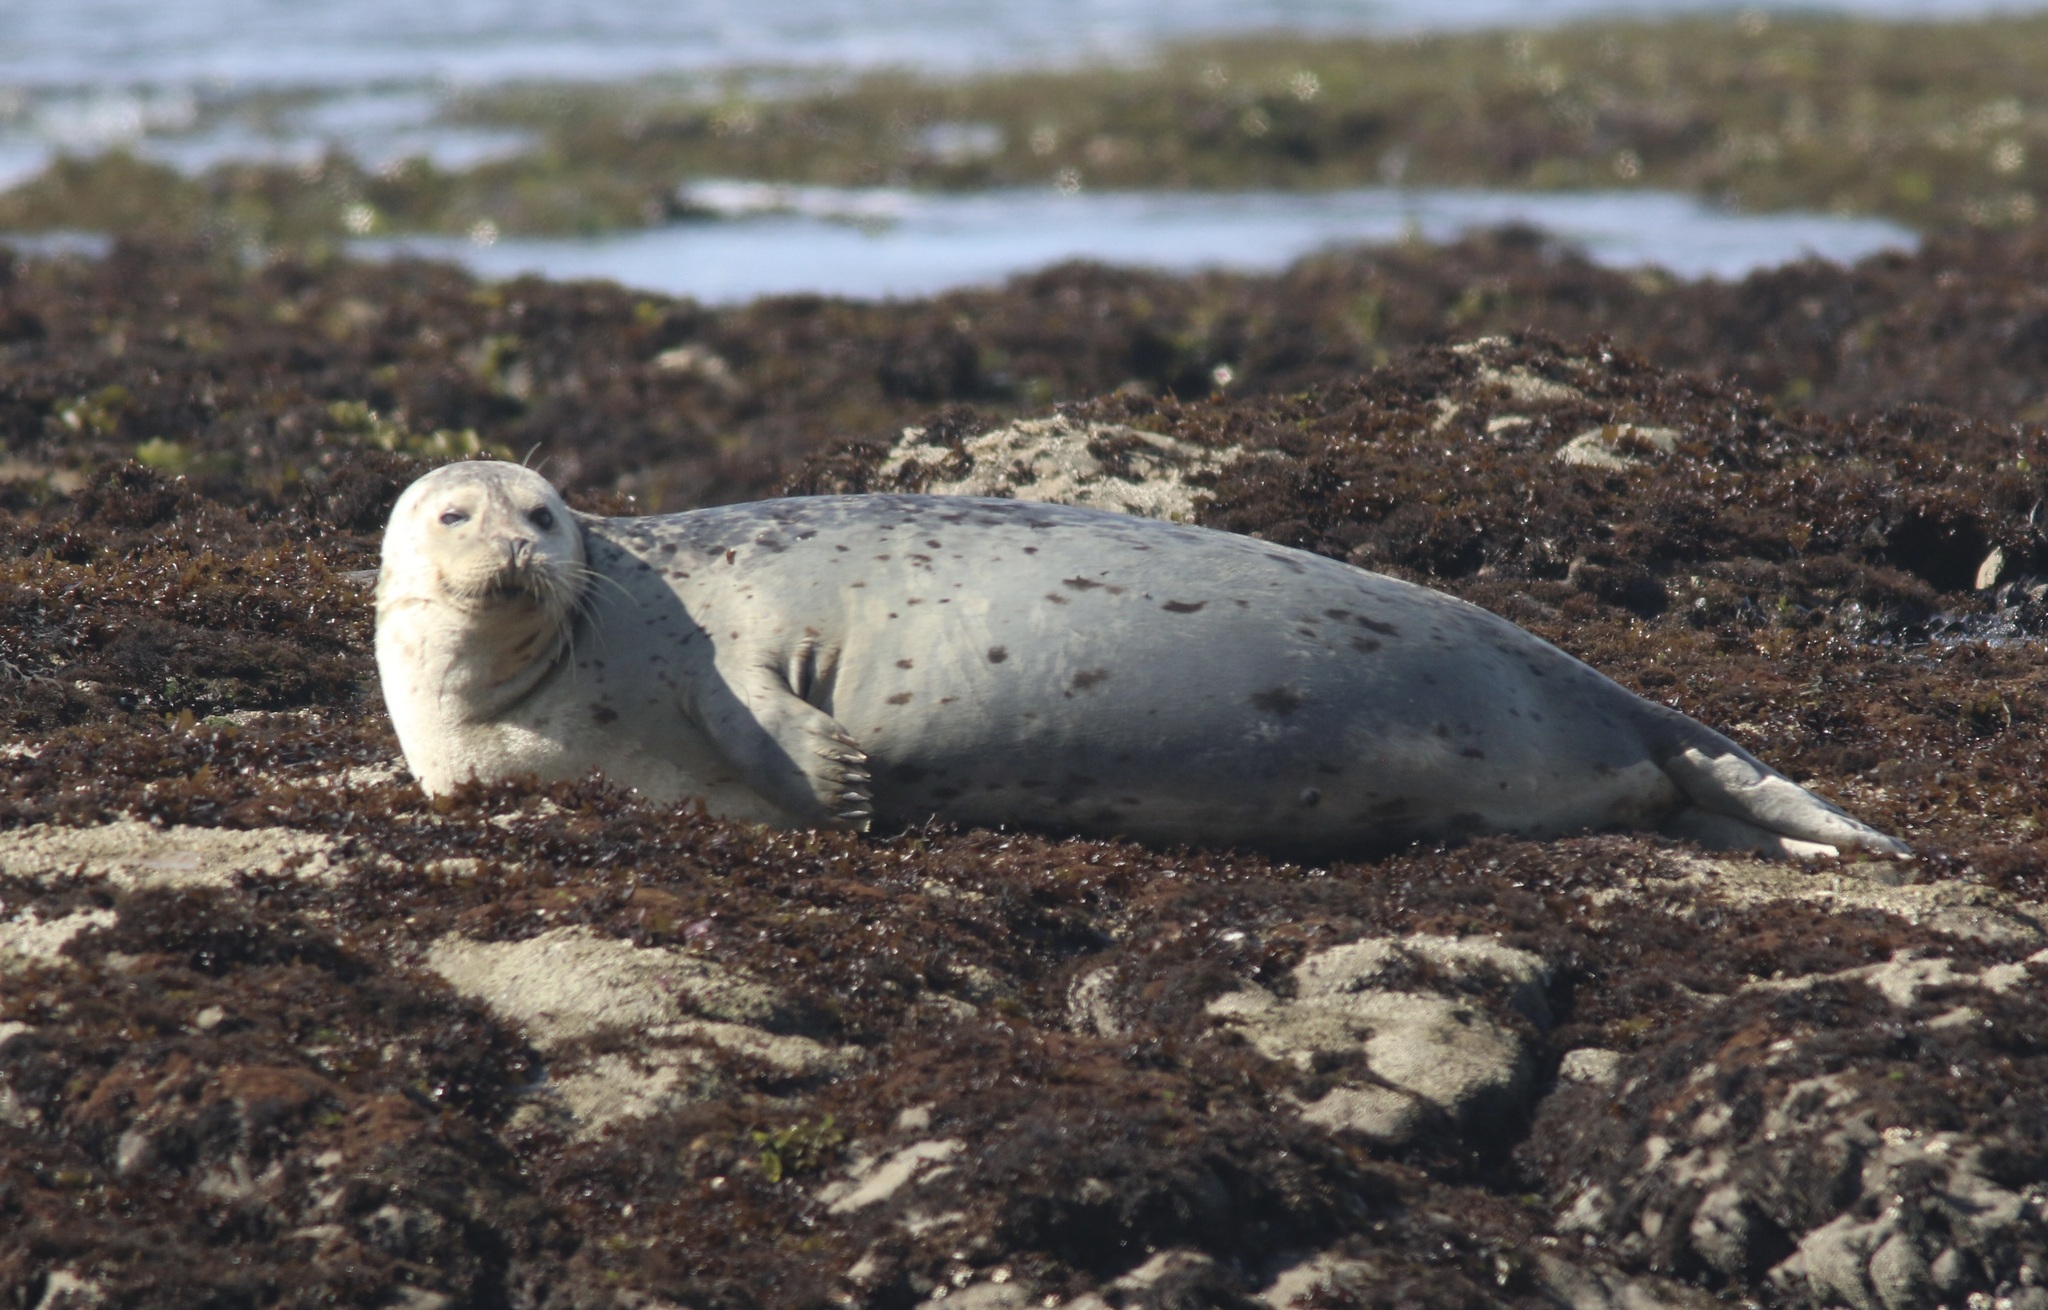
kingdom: Animalia
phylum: Chordata
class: Mammalia
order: Carnivora
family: Phocidae
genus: Phoca
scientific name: Phoca vitulina
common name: Harbor seal
